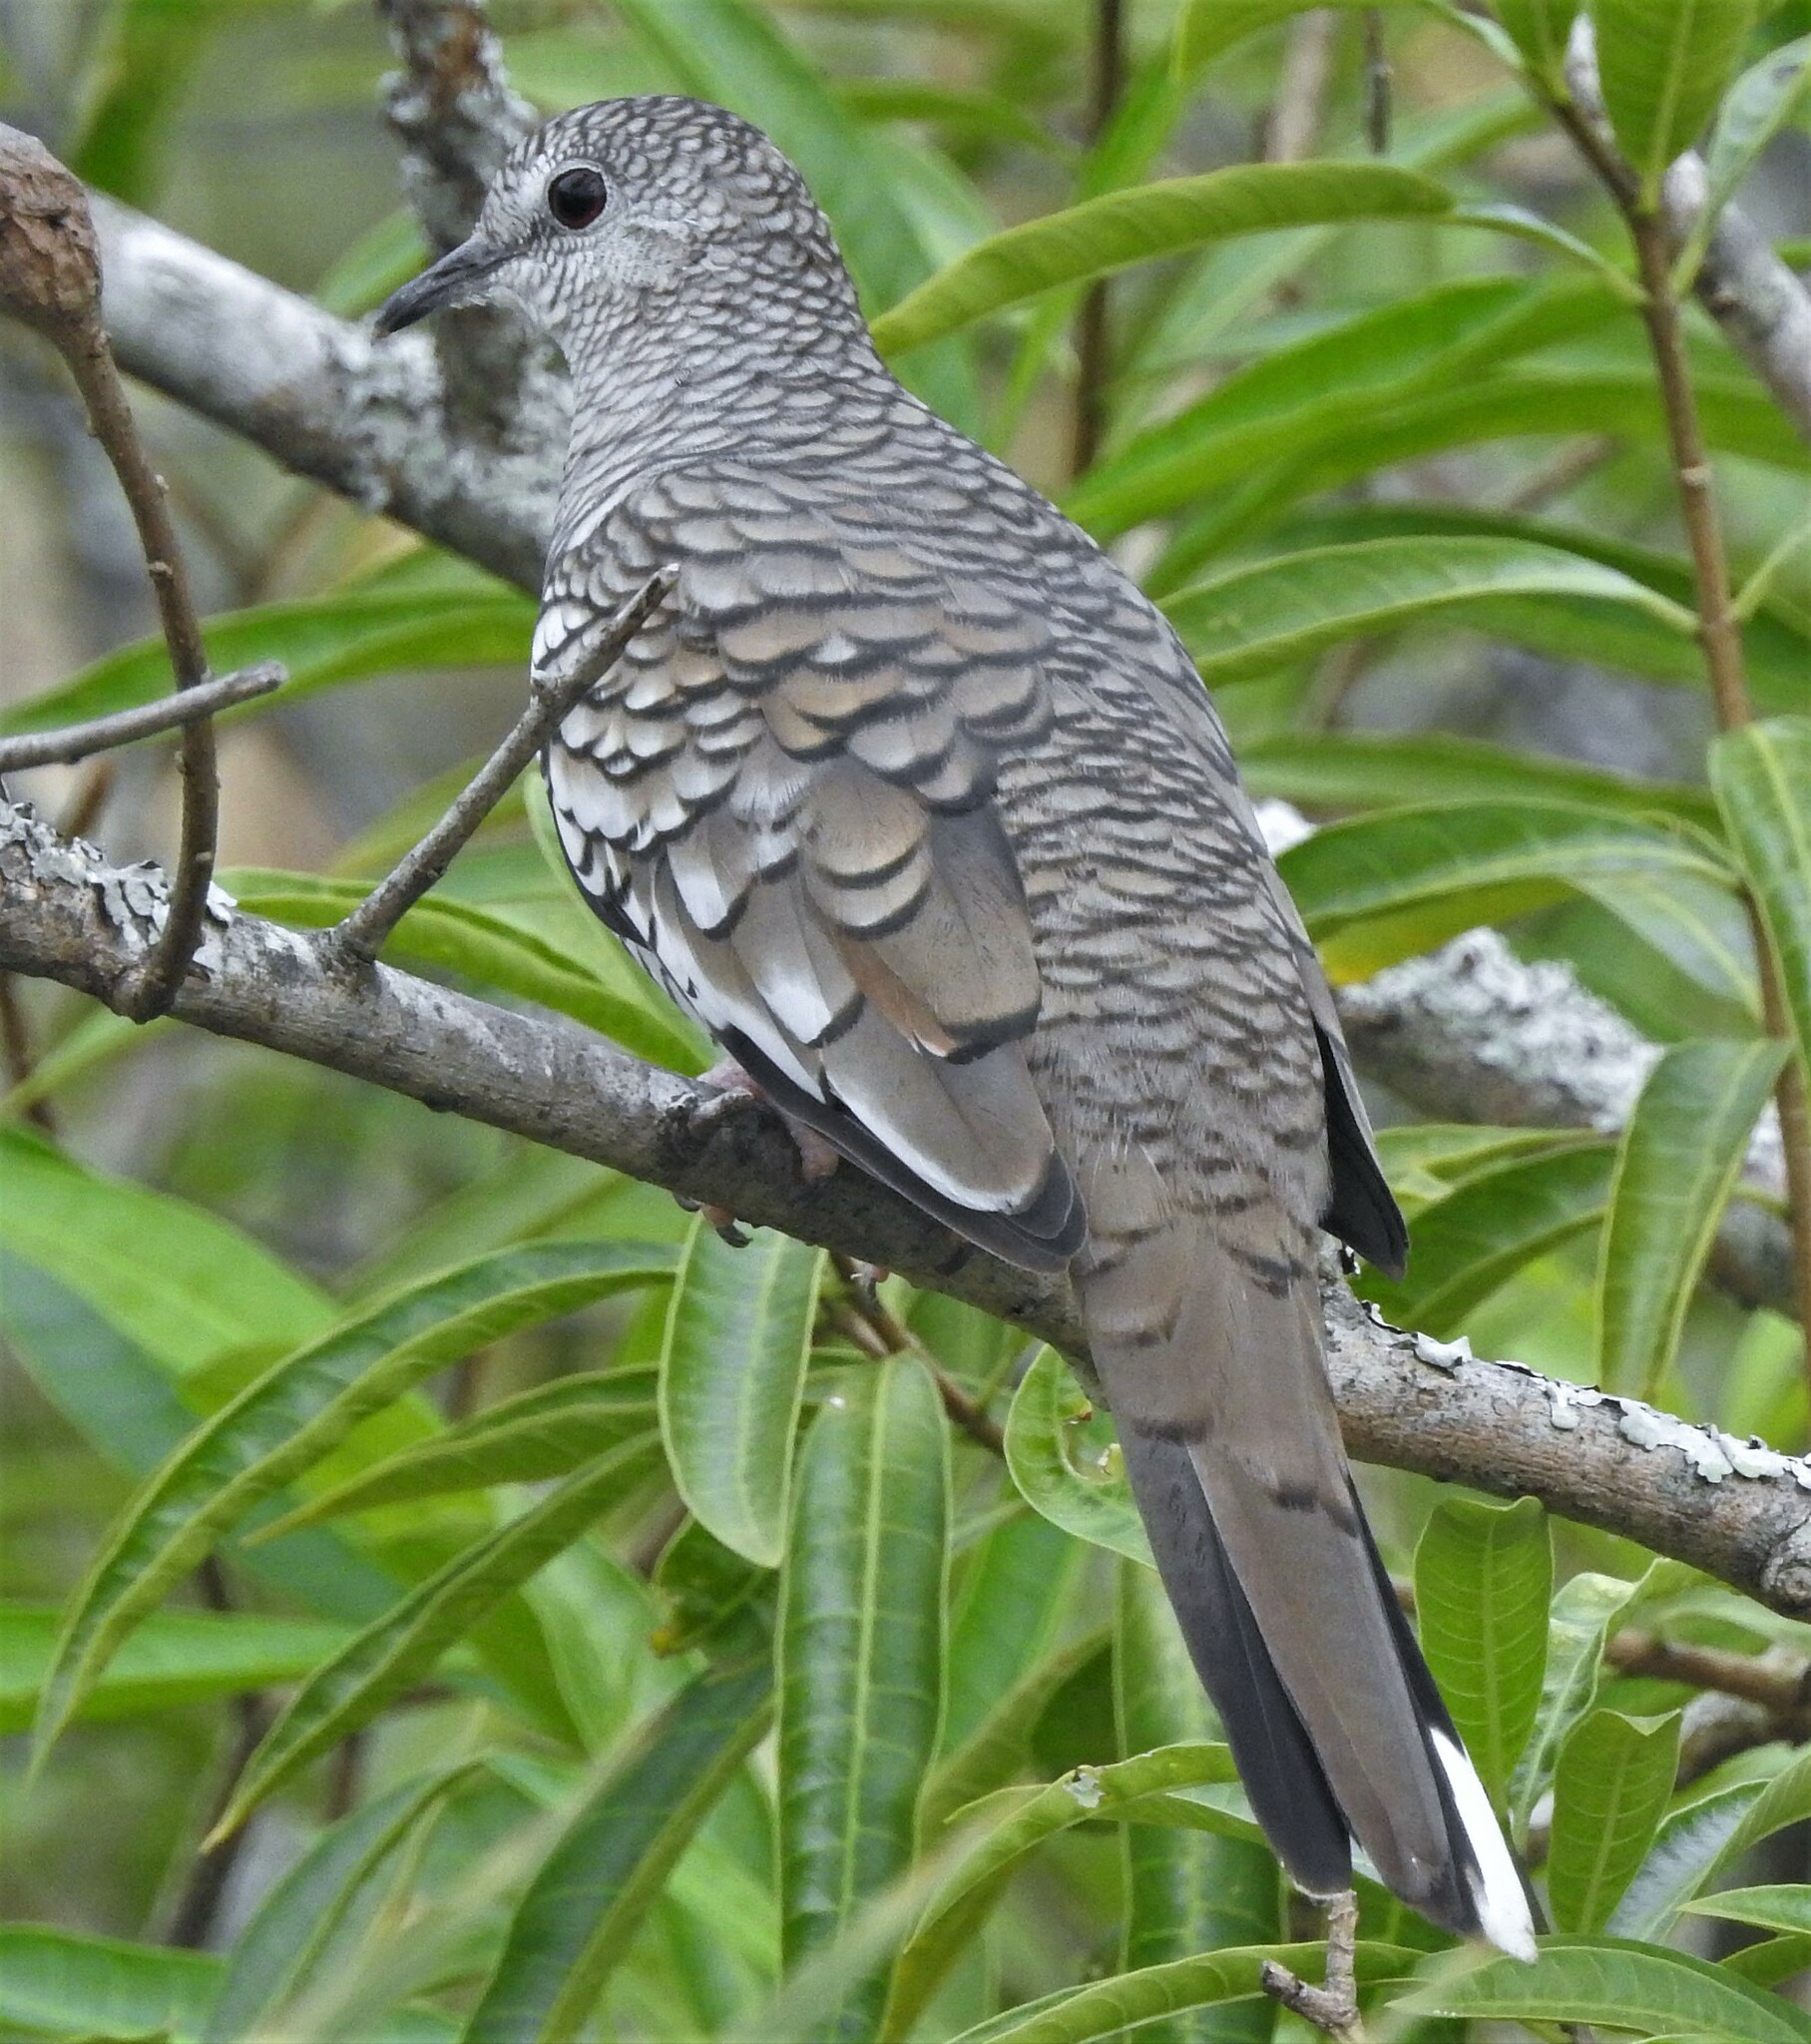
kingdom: Animalia
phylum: Chordata
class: Aves
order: Columbiformes
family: Columbidae
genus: Columbina
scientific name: Columbina squammata
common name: Scaled dove
